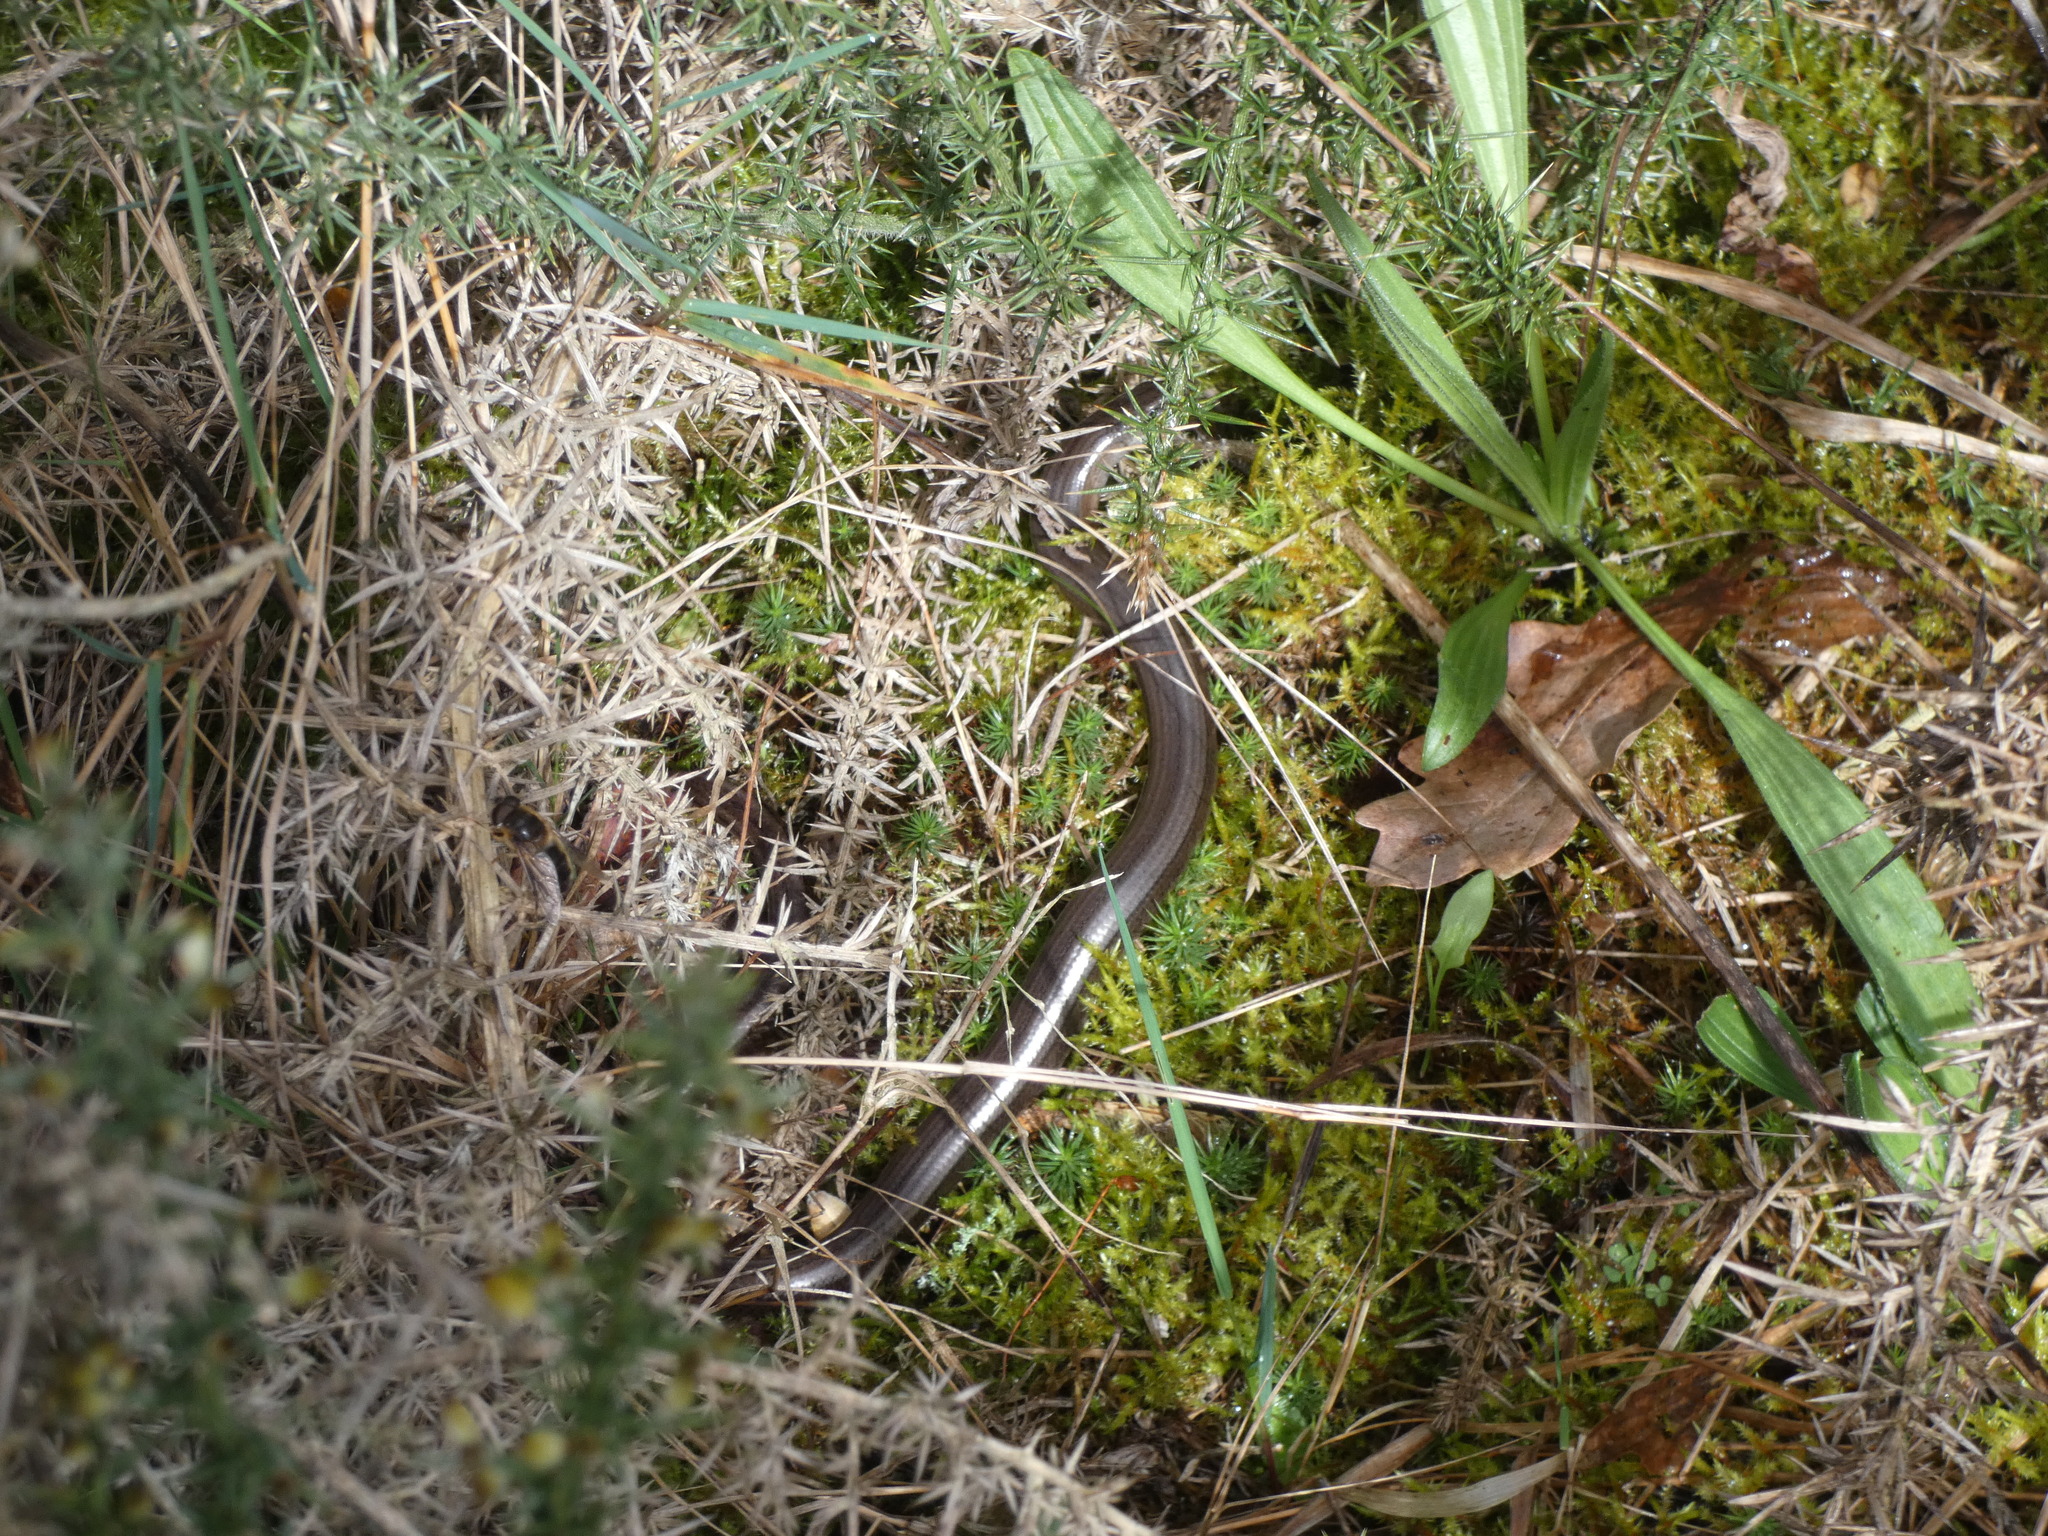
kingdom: Animalia
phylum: Chordata
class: Squamata
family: Anguidae
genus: Anguis
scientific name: Anguis fragilis
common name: Slow worm
